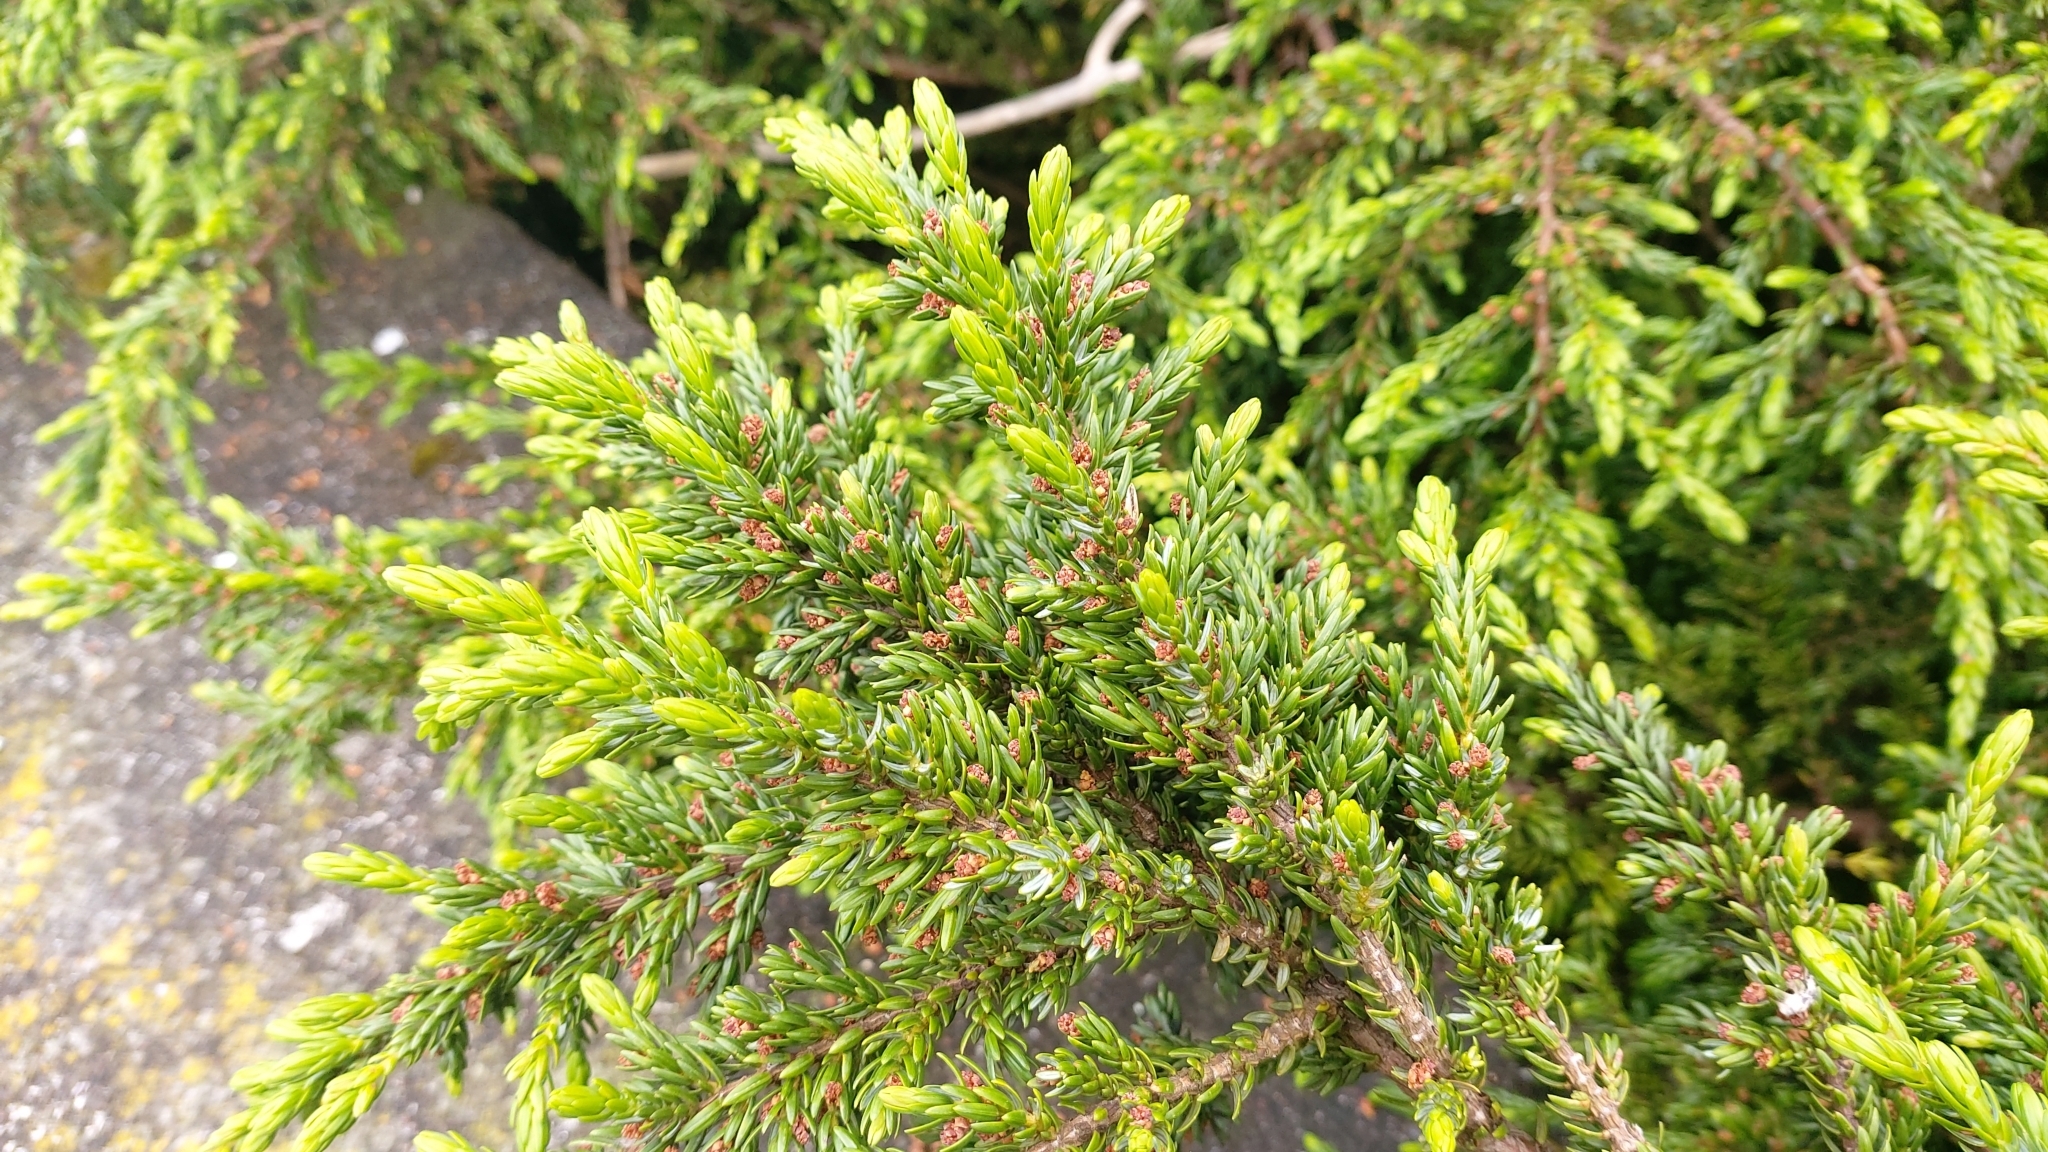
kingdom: Plantae
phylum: Tracheophyta
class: Pinopsida
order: Pinales
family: Cupressaceae
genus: Juniperus
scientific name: Juniperus brevifolia
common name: Azores juniper
